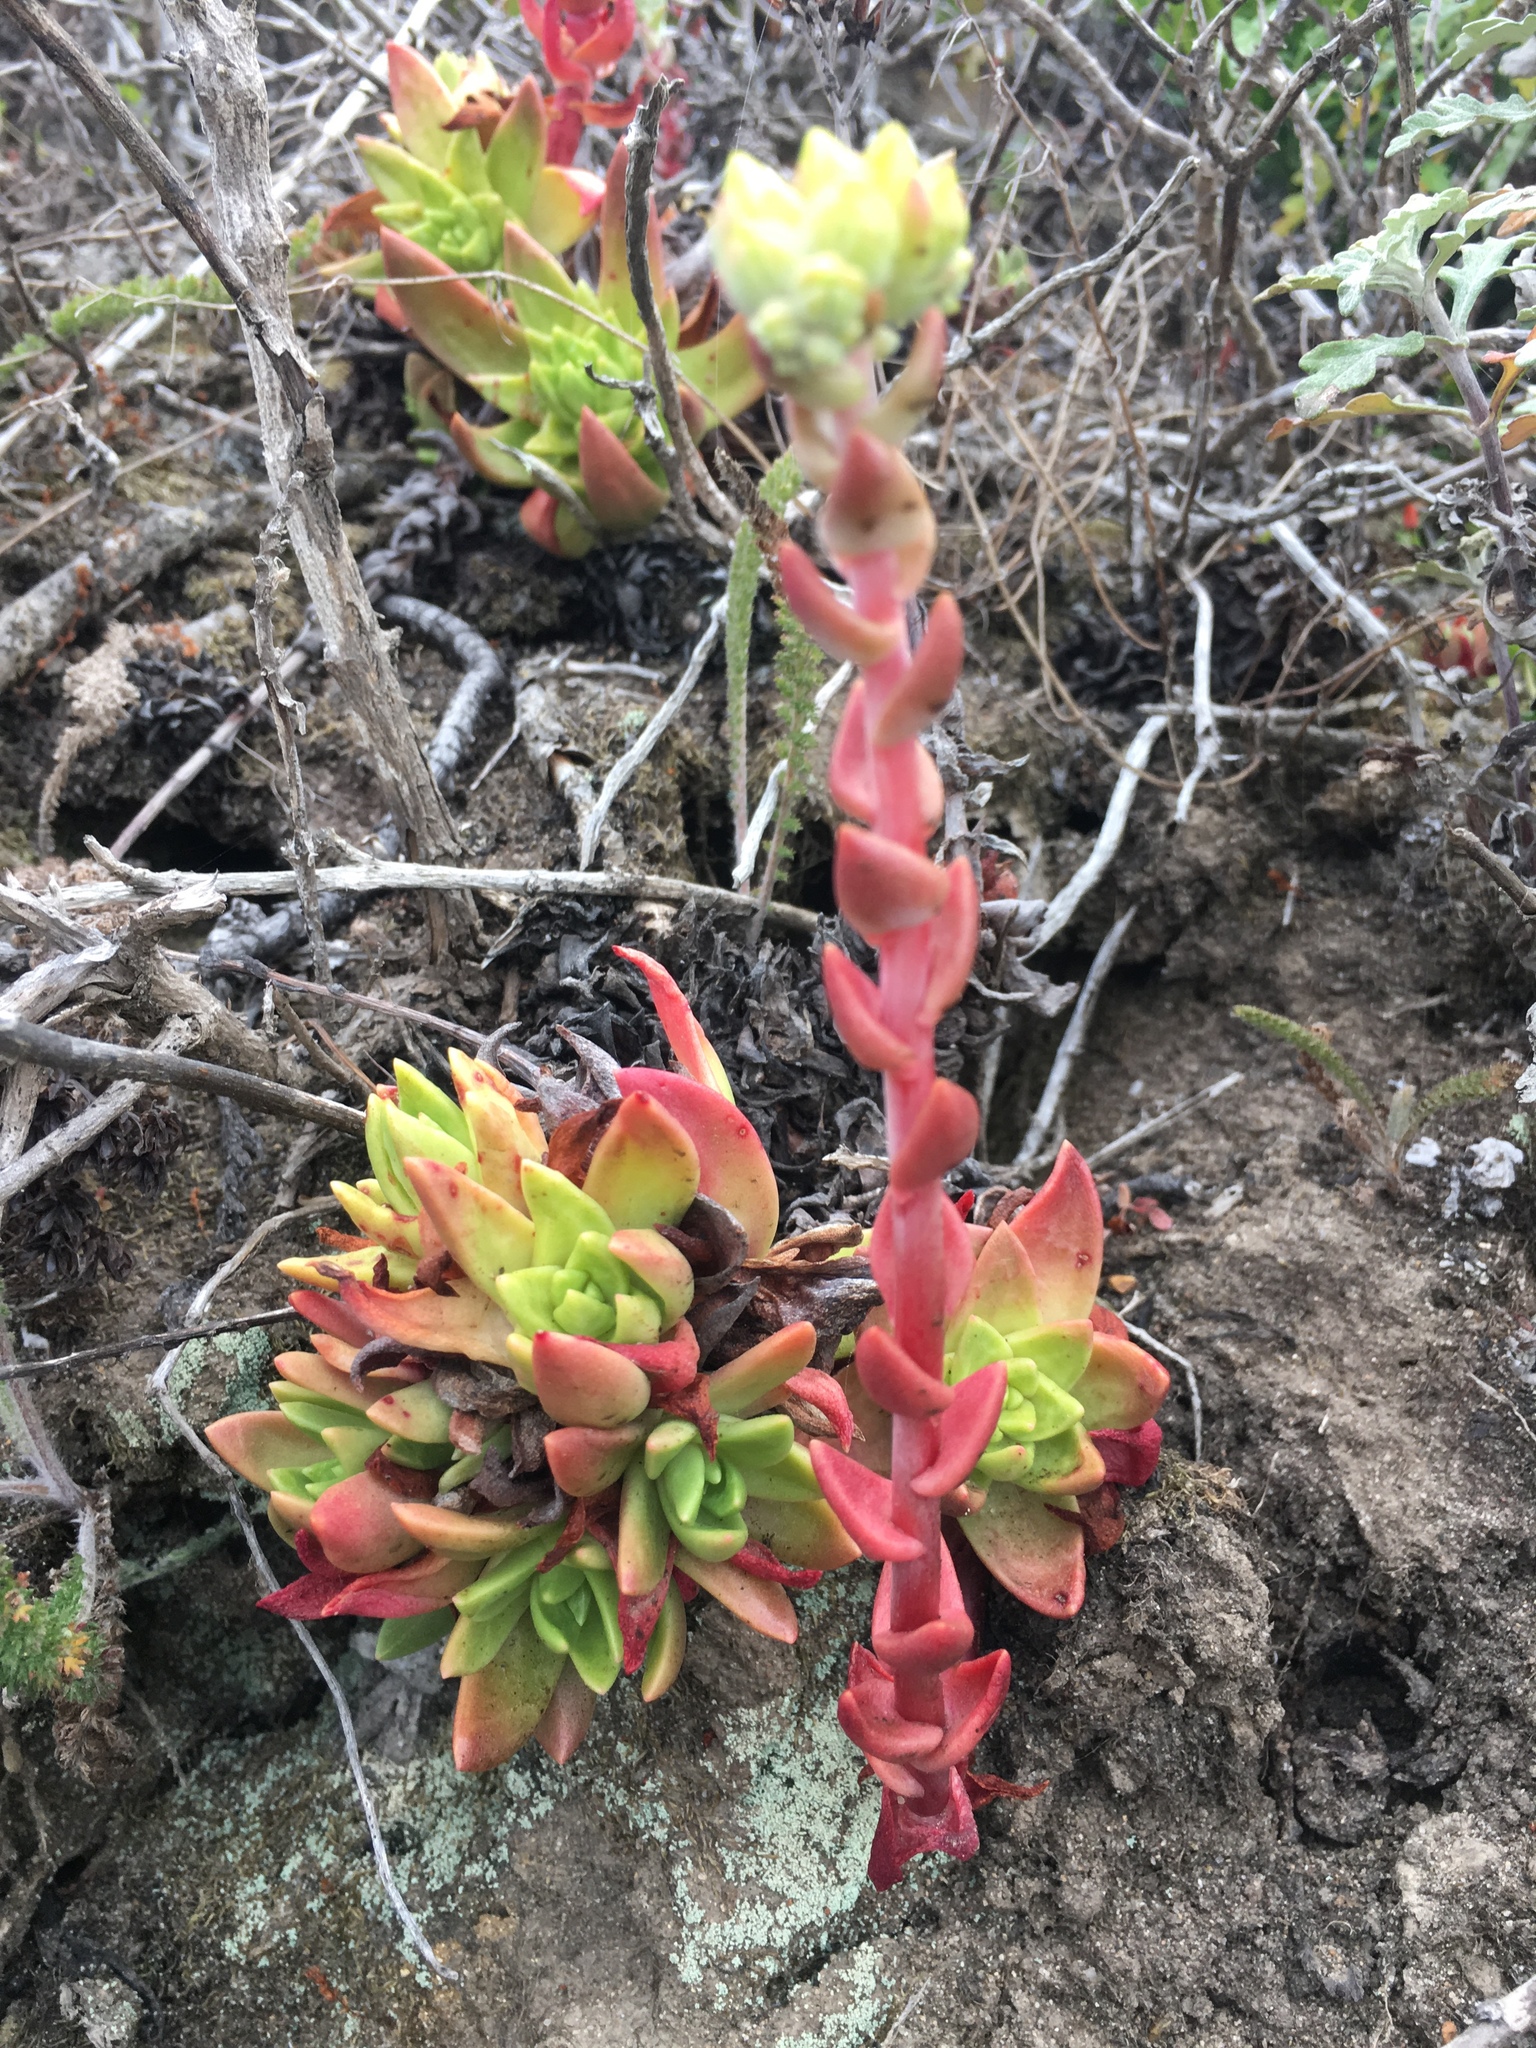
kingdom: Plantae
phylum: Tracheophyta
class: Magnoliopsida
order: Saxifragales
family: Crassulaceae
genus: Dudleya
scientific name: Dudleya farinosa
